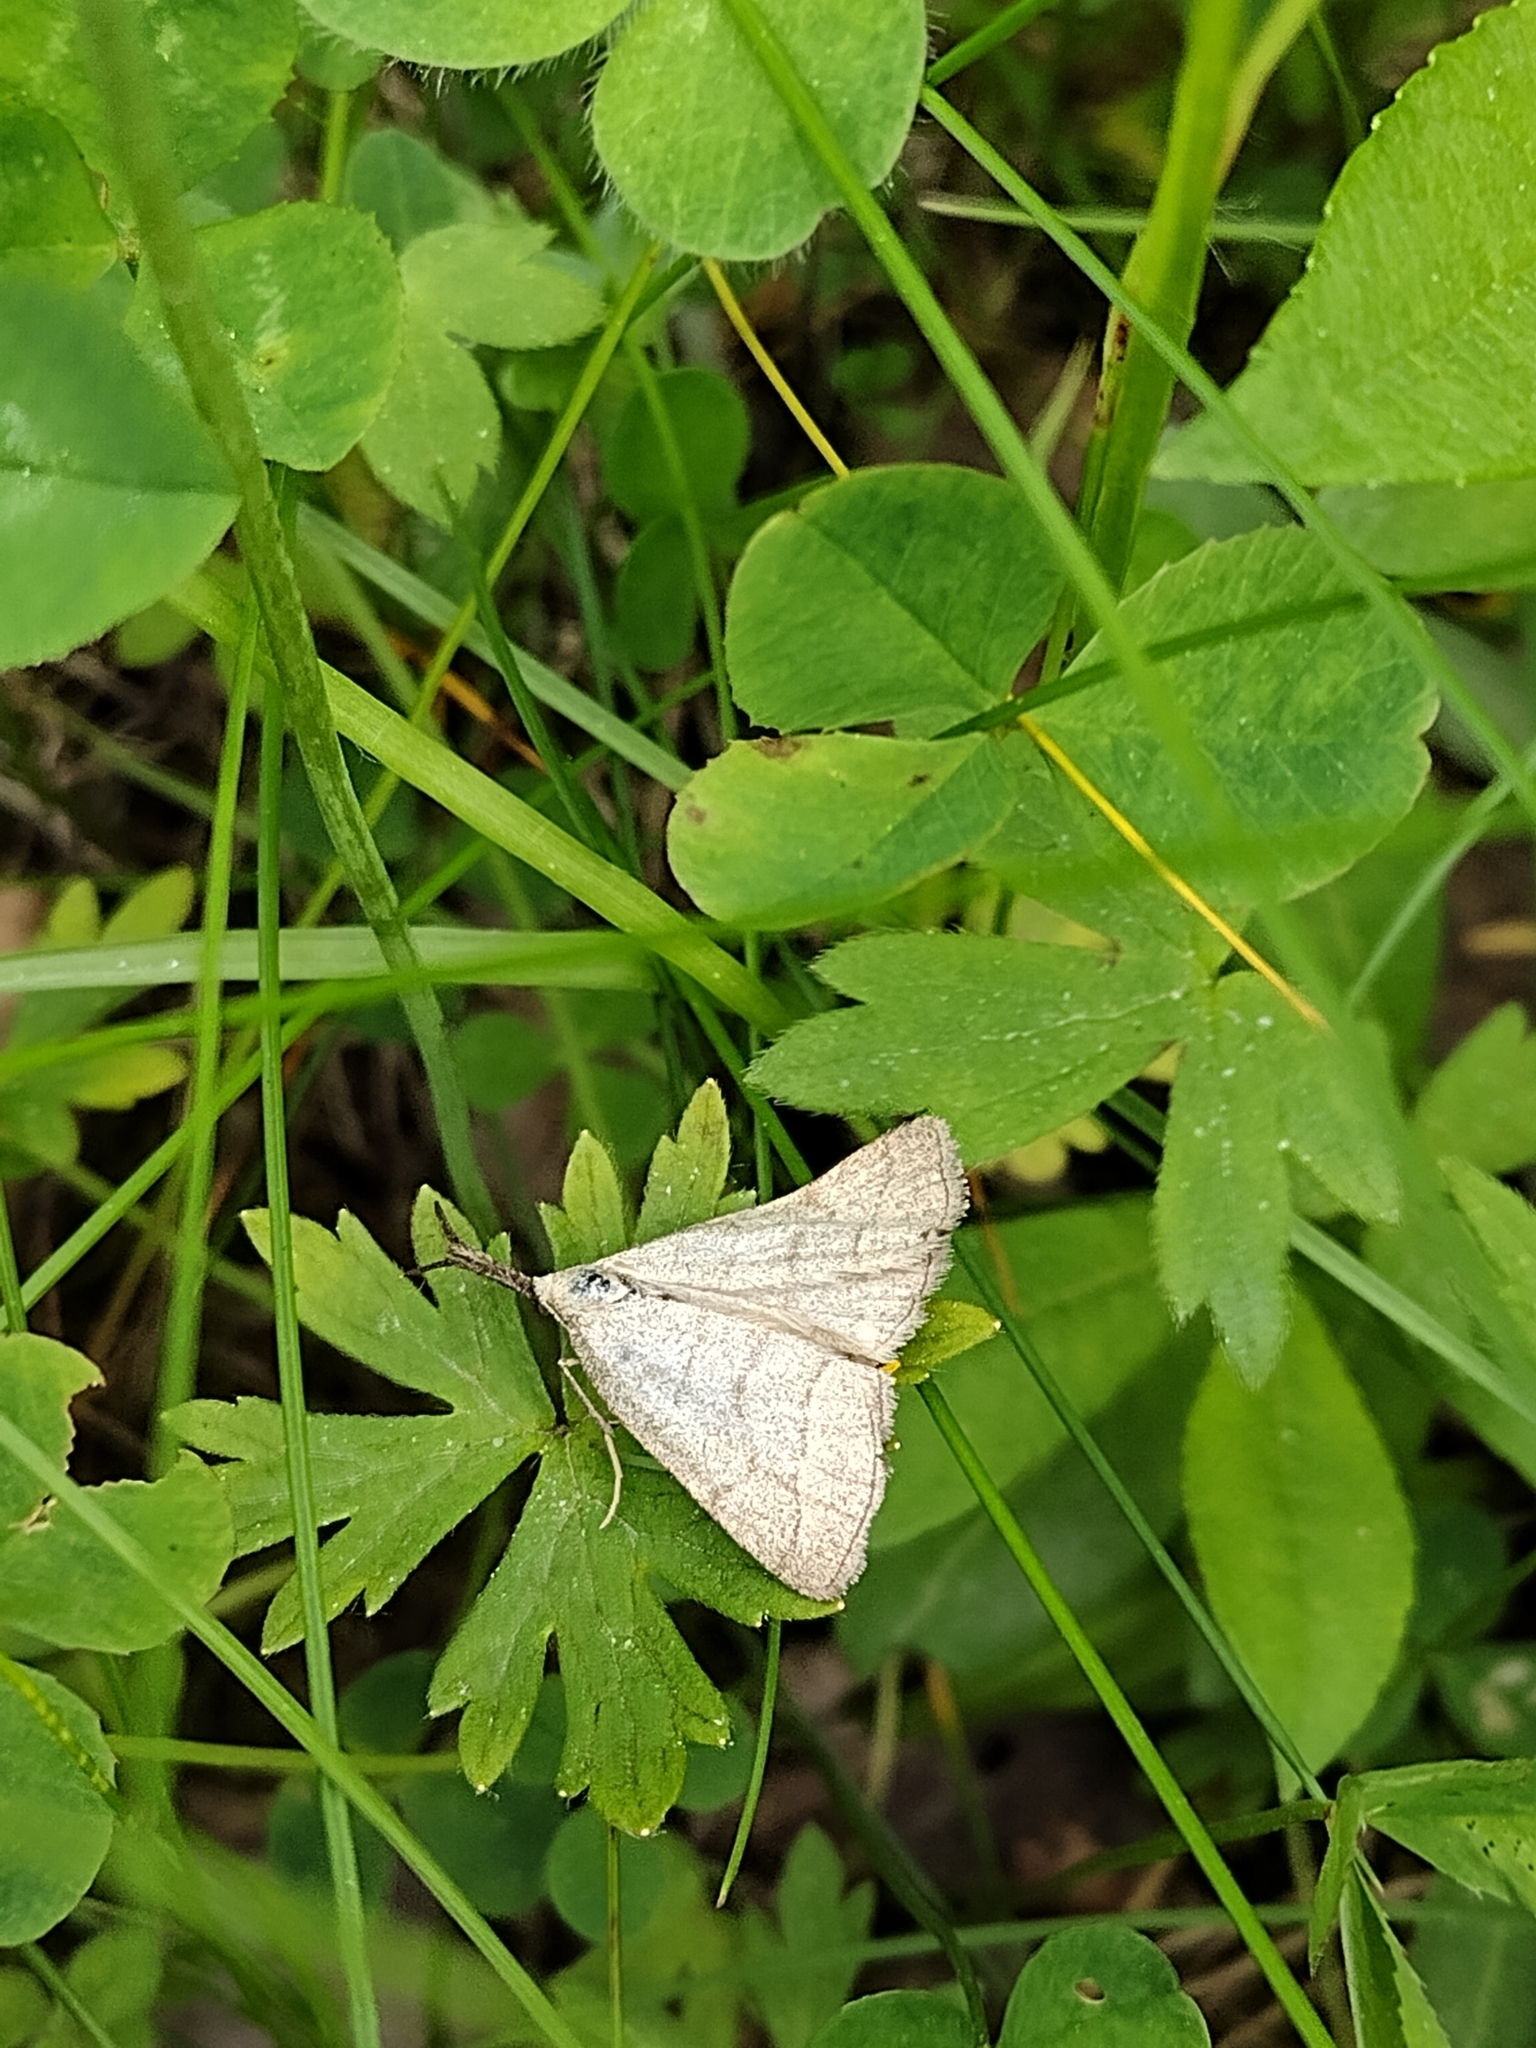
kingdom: Animalia
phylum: Arthropoda
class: Insecta
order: Lepidoptera
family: Erebidae
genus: Polypogon
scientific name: Polypogon tentacularia
